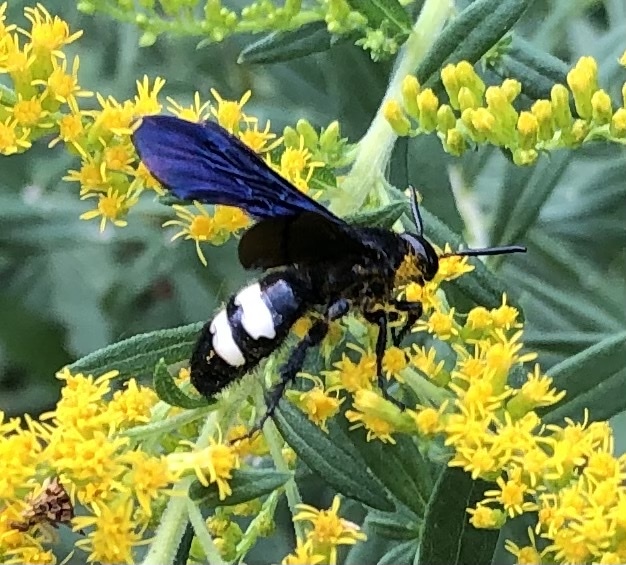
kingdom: Animalia
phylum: Arthropoda
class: Insecta
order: Hymenoptera
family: Scoliidae
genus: Scolia
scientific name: Scolia bicincta
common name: Double-banded scoliid wasp
